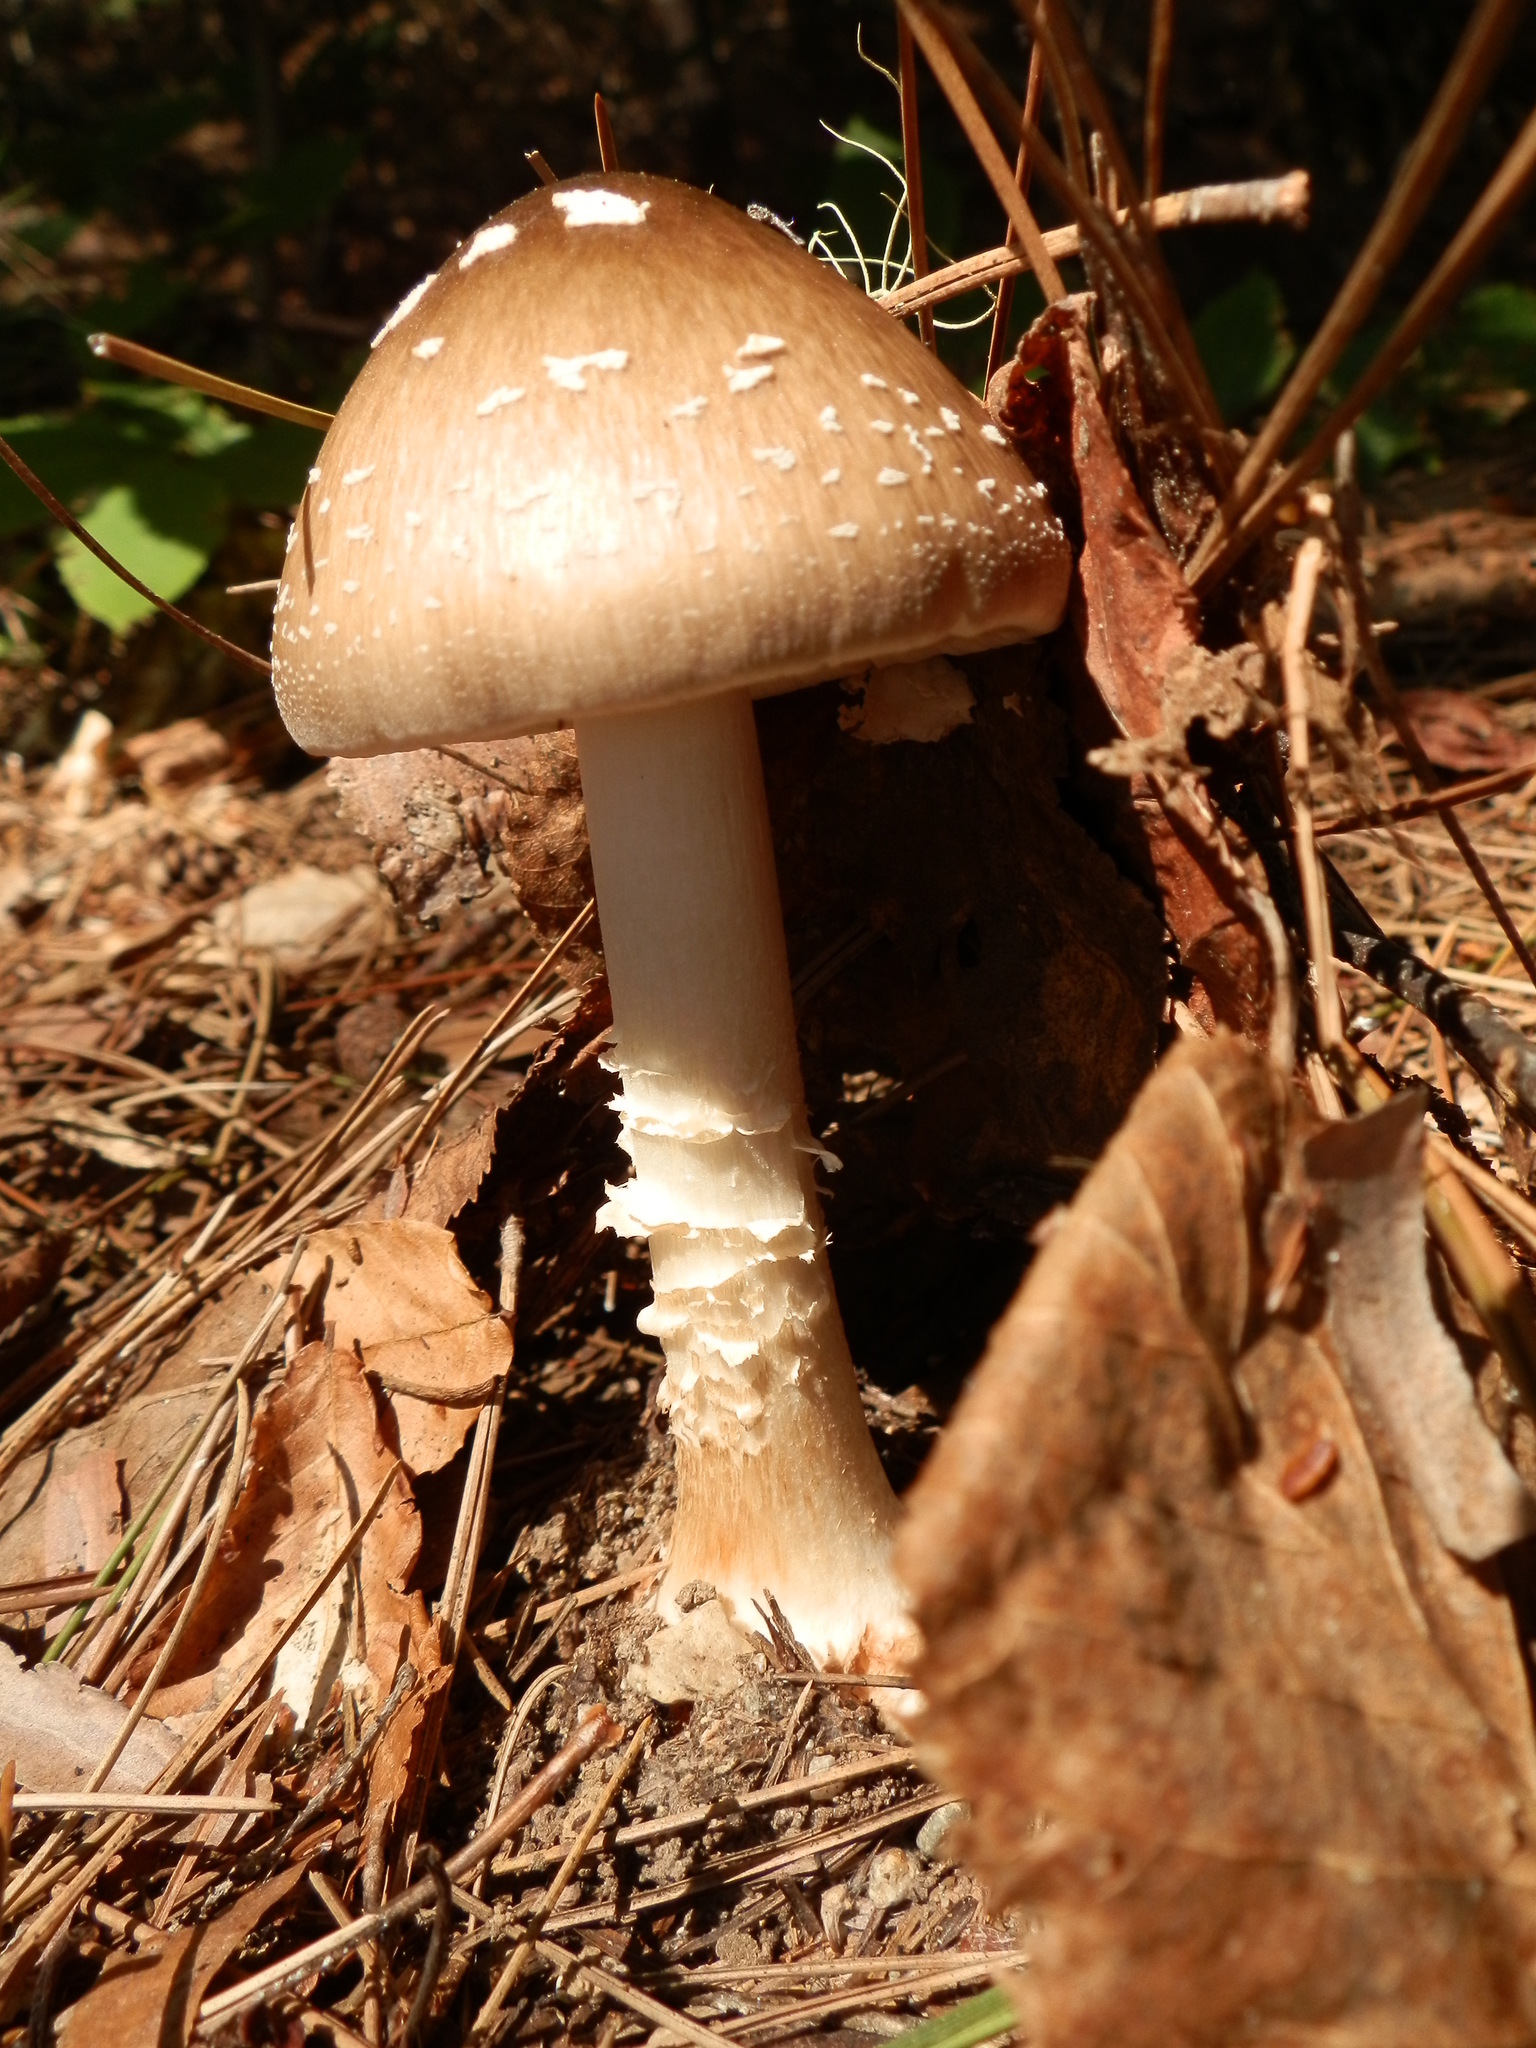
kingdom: Fungi
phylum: Basidiomycota
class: Agaricomycetes
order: Agaricales
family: Amanitaceae
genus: Amanita
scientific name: Amanita brunnescens
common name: Brown american star-footed amanita
